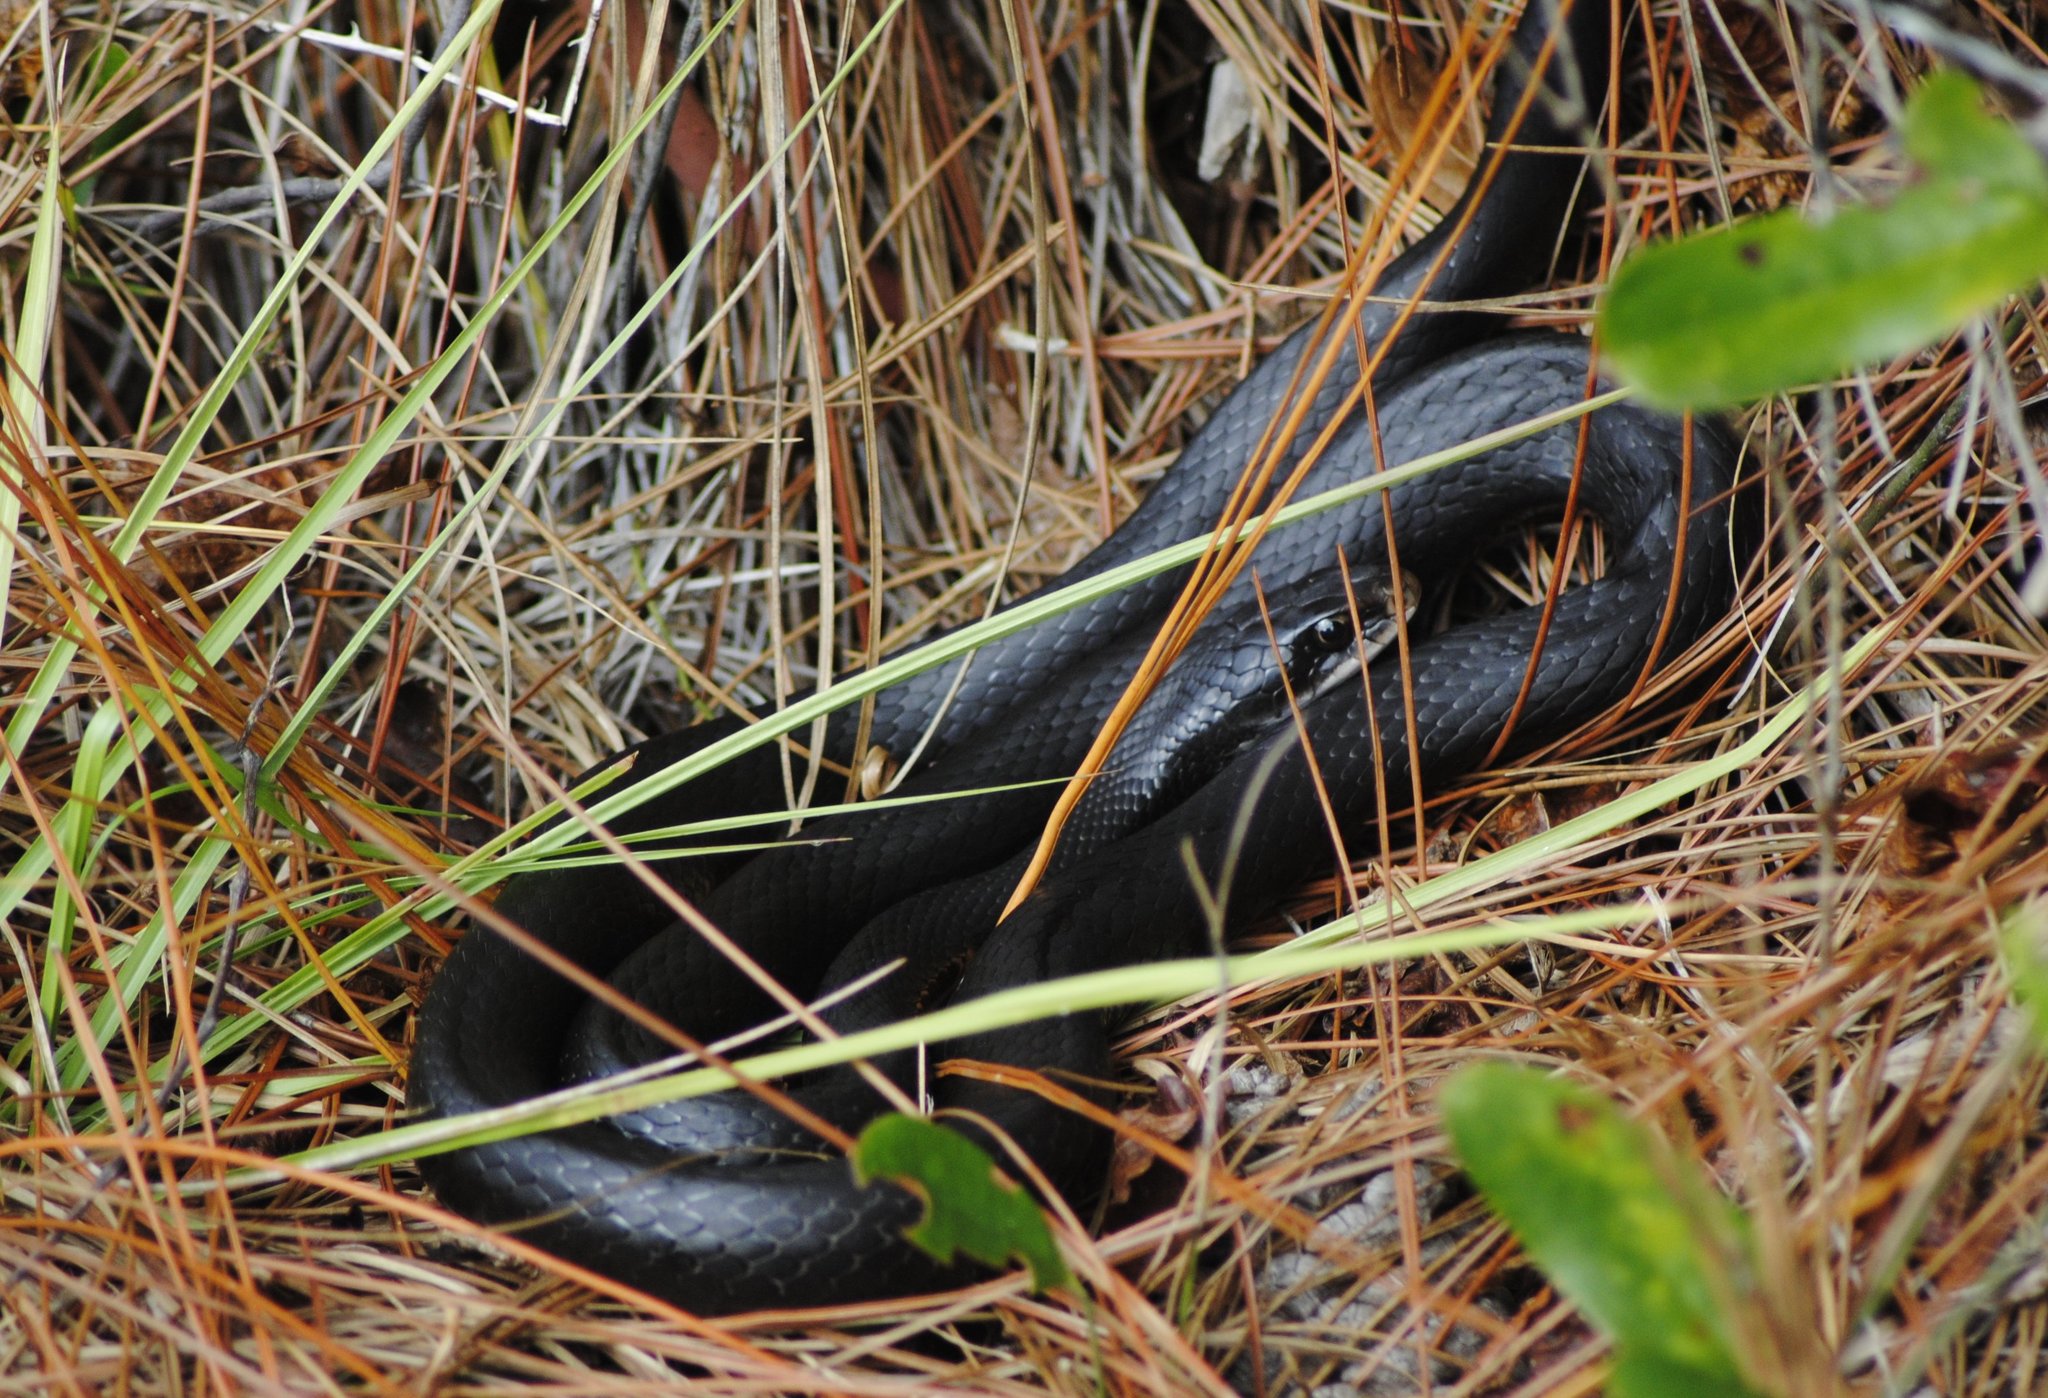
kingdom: Animalia
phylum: Chordata
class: Squamata
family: Colubridae
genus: Coluber
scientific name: Coluber constrictor
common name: Eastern racer
